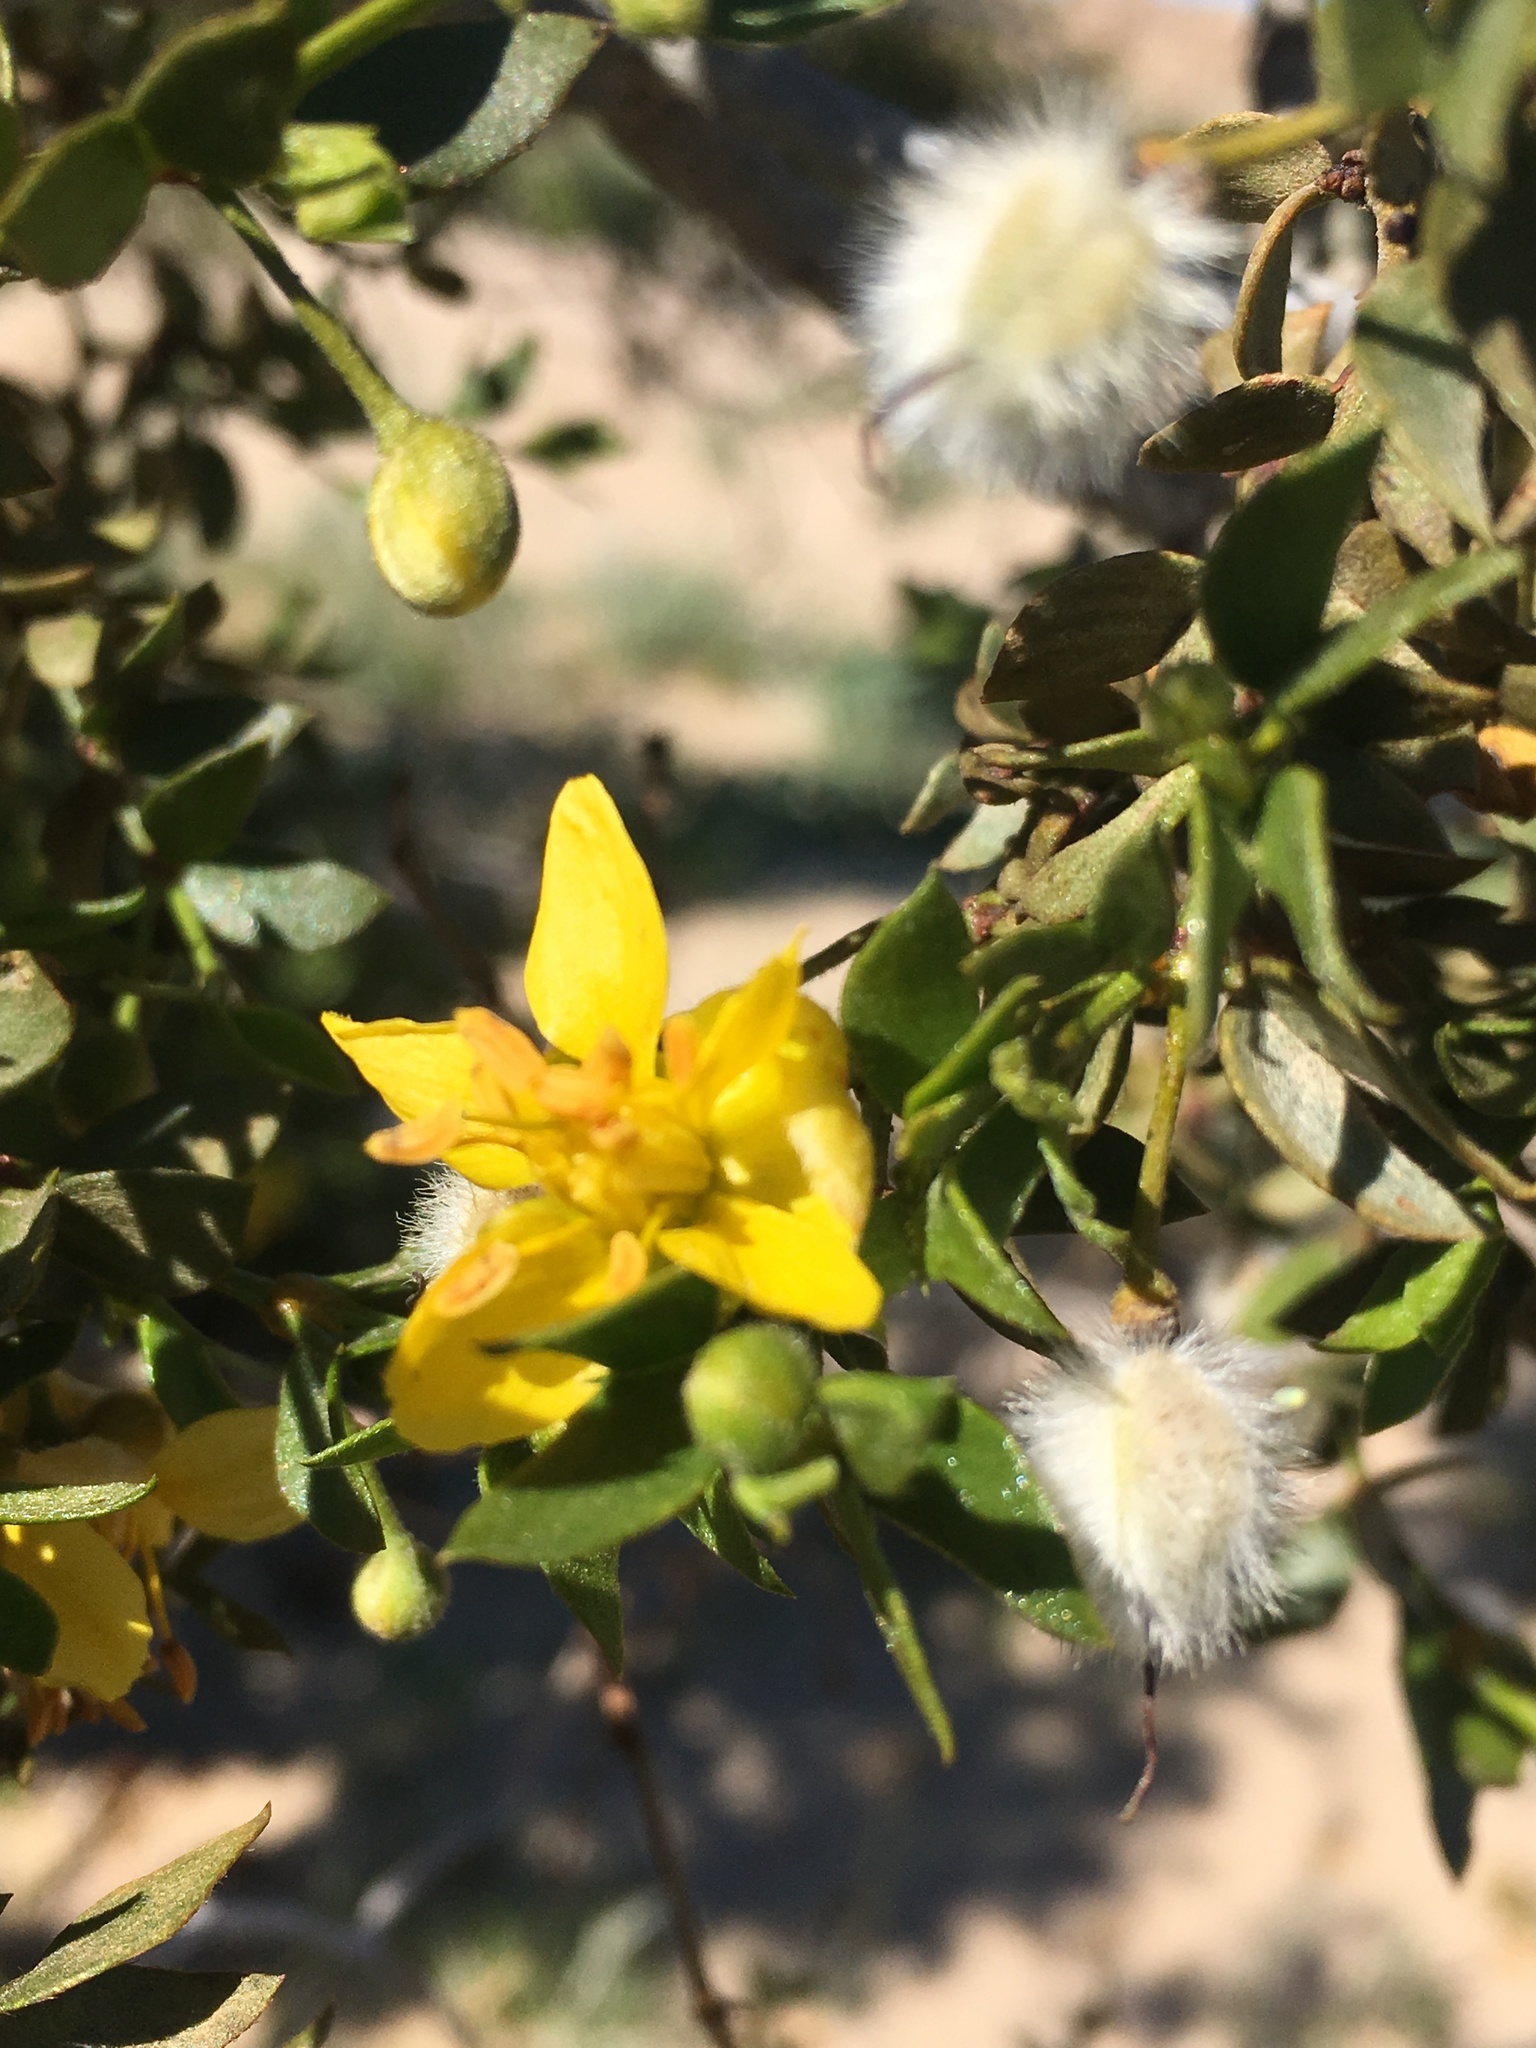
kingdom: Plantae
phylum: Tracheophyta
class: Magnoliopsida
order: Zygophyllales
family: Zygophyllaceae
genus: Larrea
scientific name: Larrea tridentata
